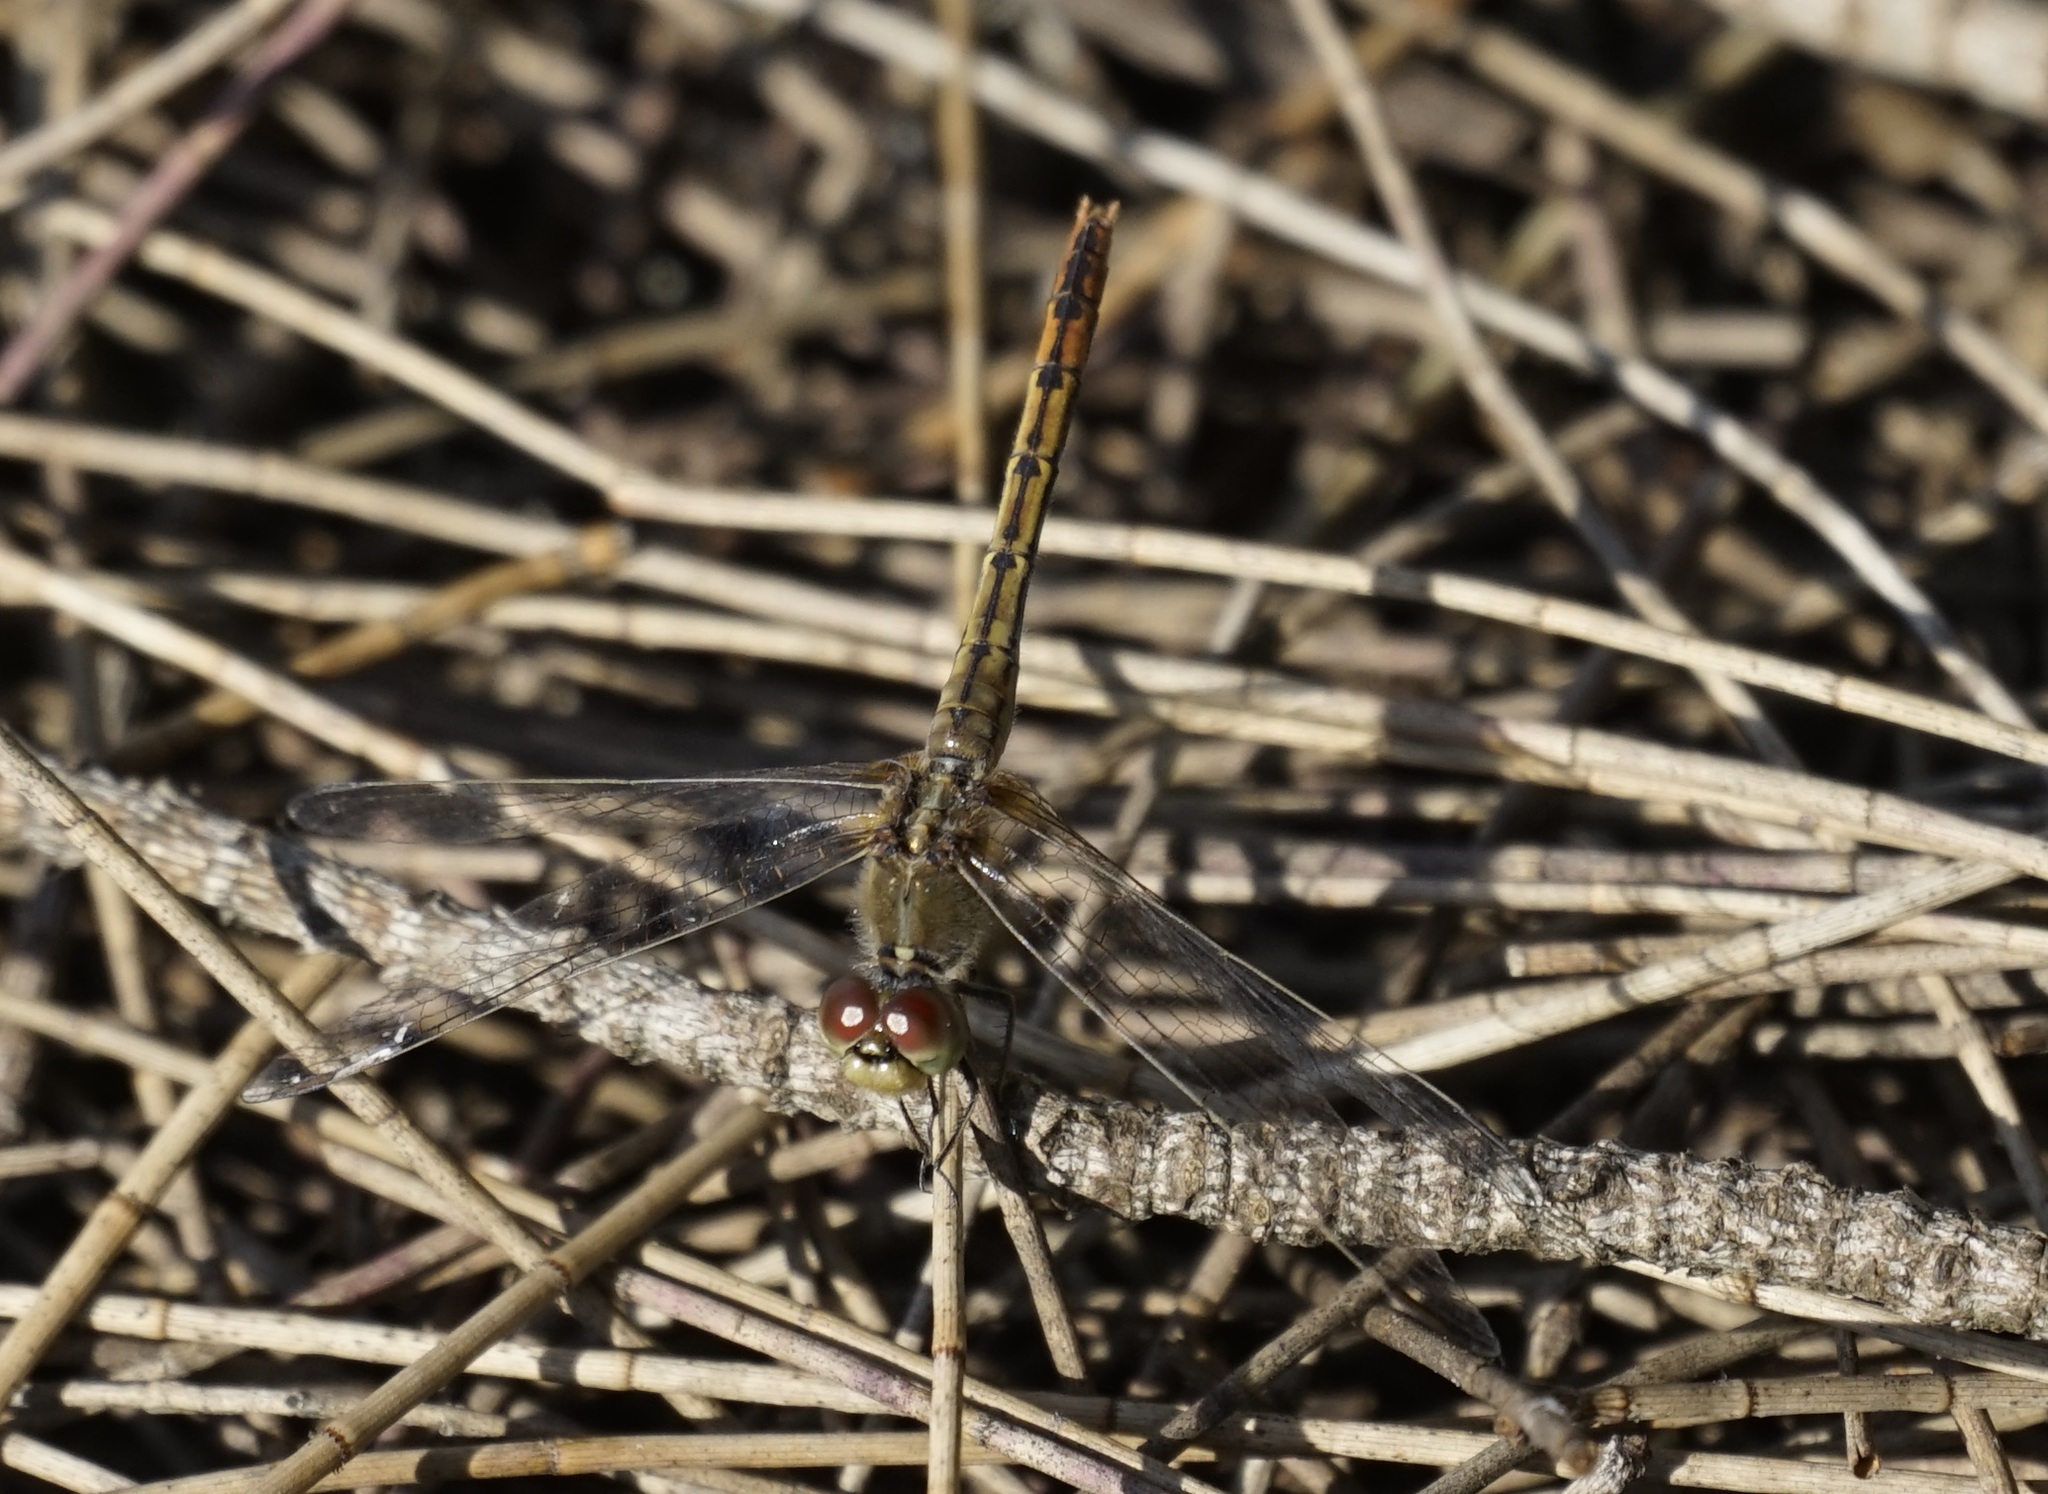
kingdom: Animalia
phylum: Arthropoda
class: Insecta
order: Odonata
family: Libellulidae
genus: Diplacodes
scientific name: Diplacodes bipunctata
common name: Red percher dragonfly
